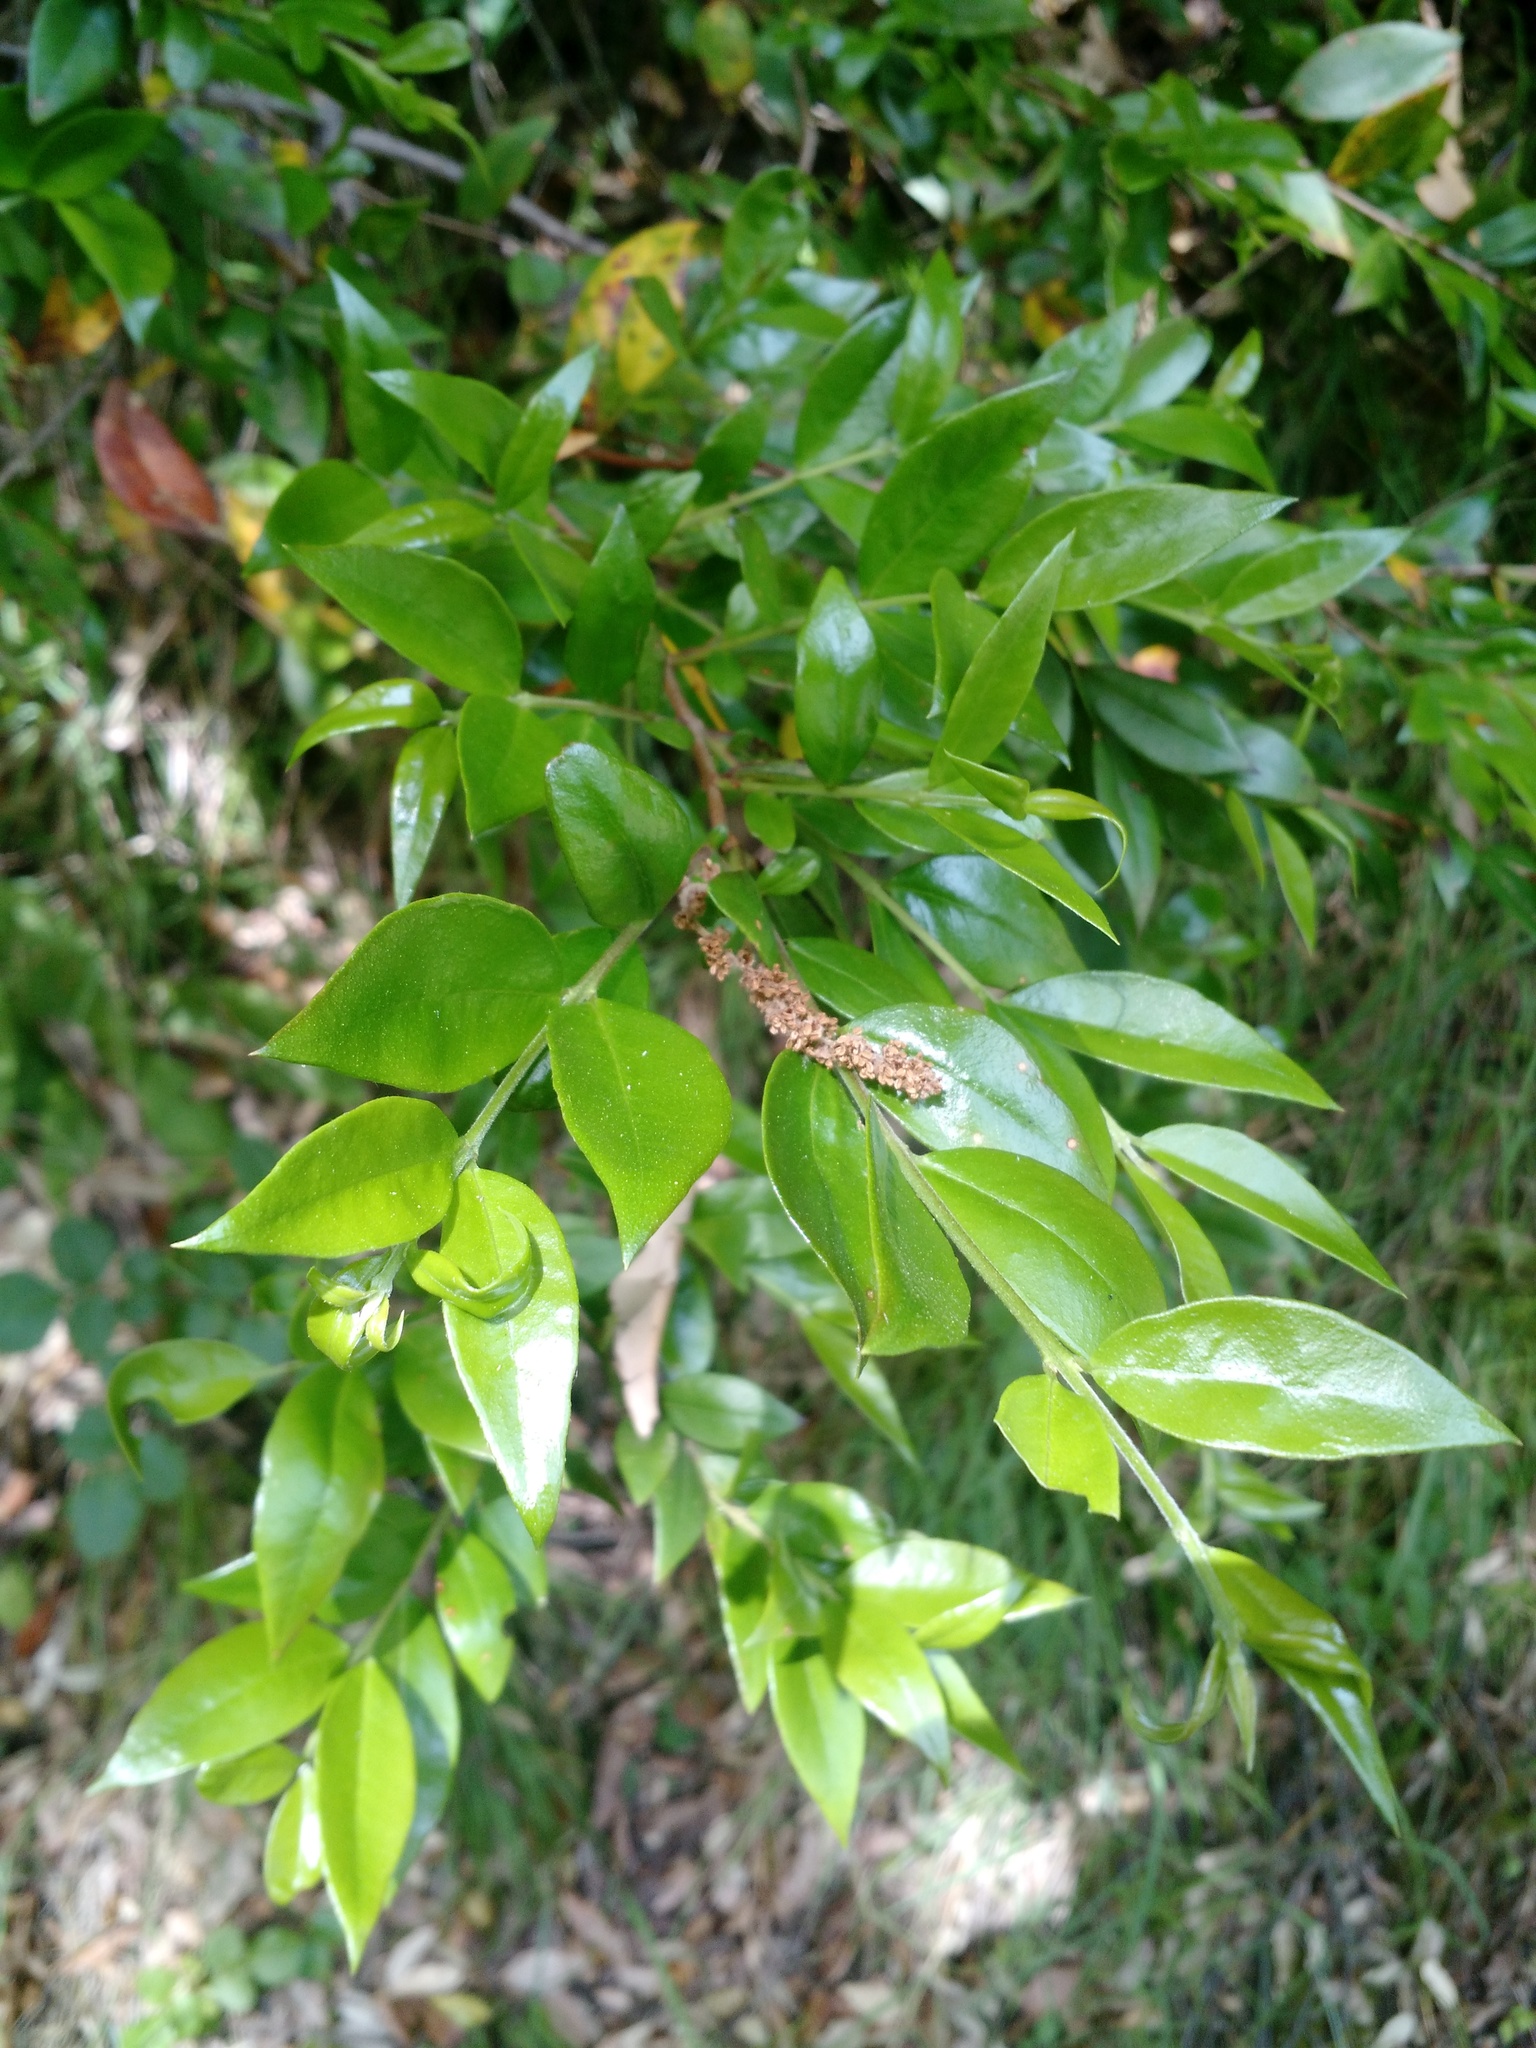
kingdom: Plantae
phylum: Tracheophyta
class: Magnoliopsida
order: Myrtales
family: Myrtaceae
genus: Myrtus
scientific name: Myrtus communis
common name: Myrtle
